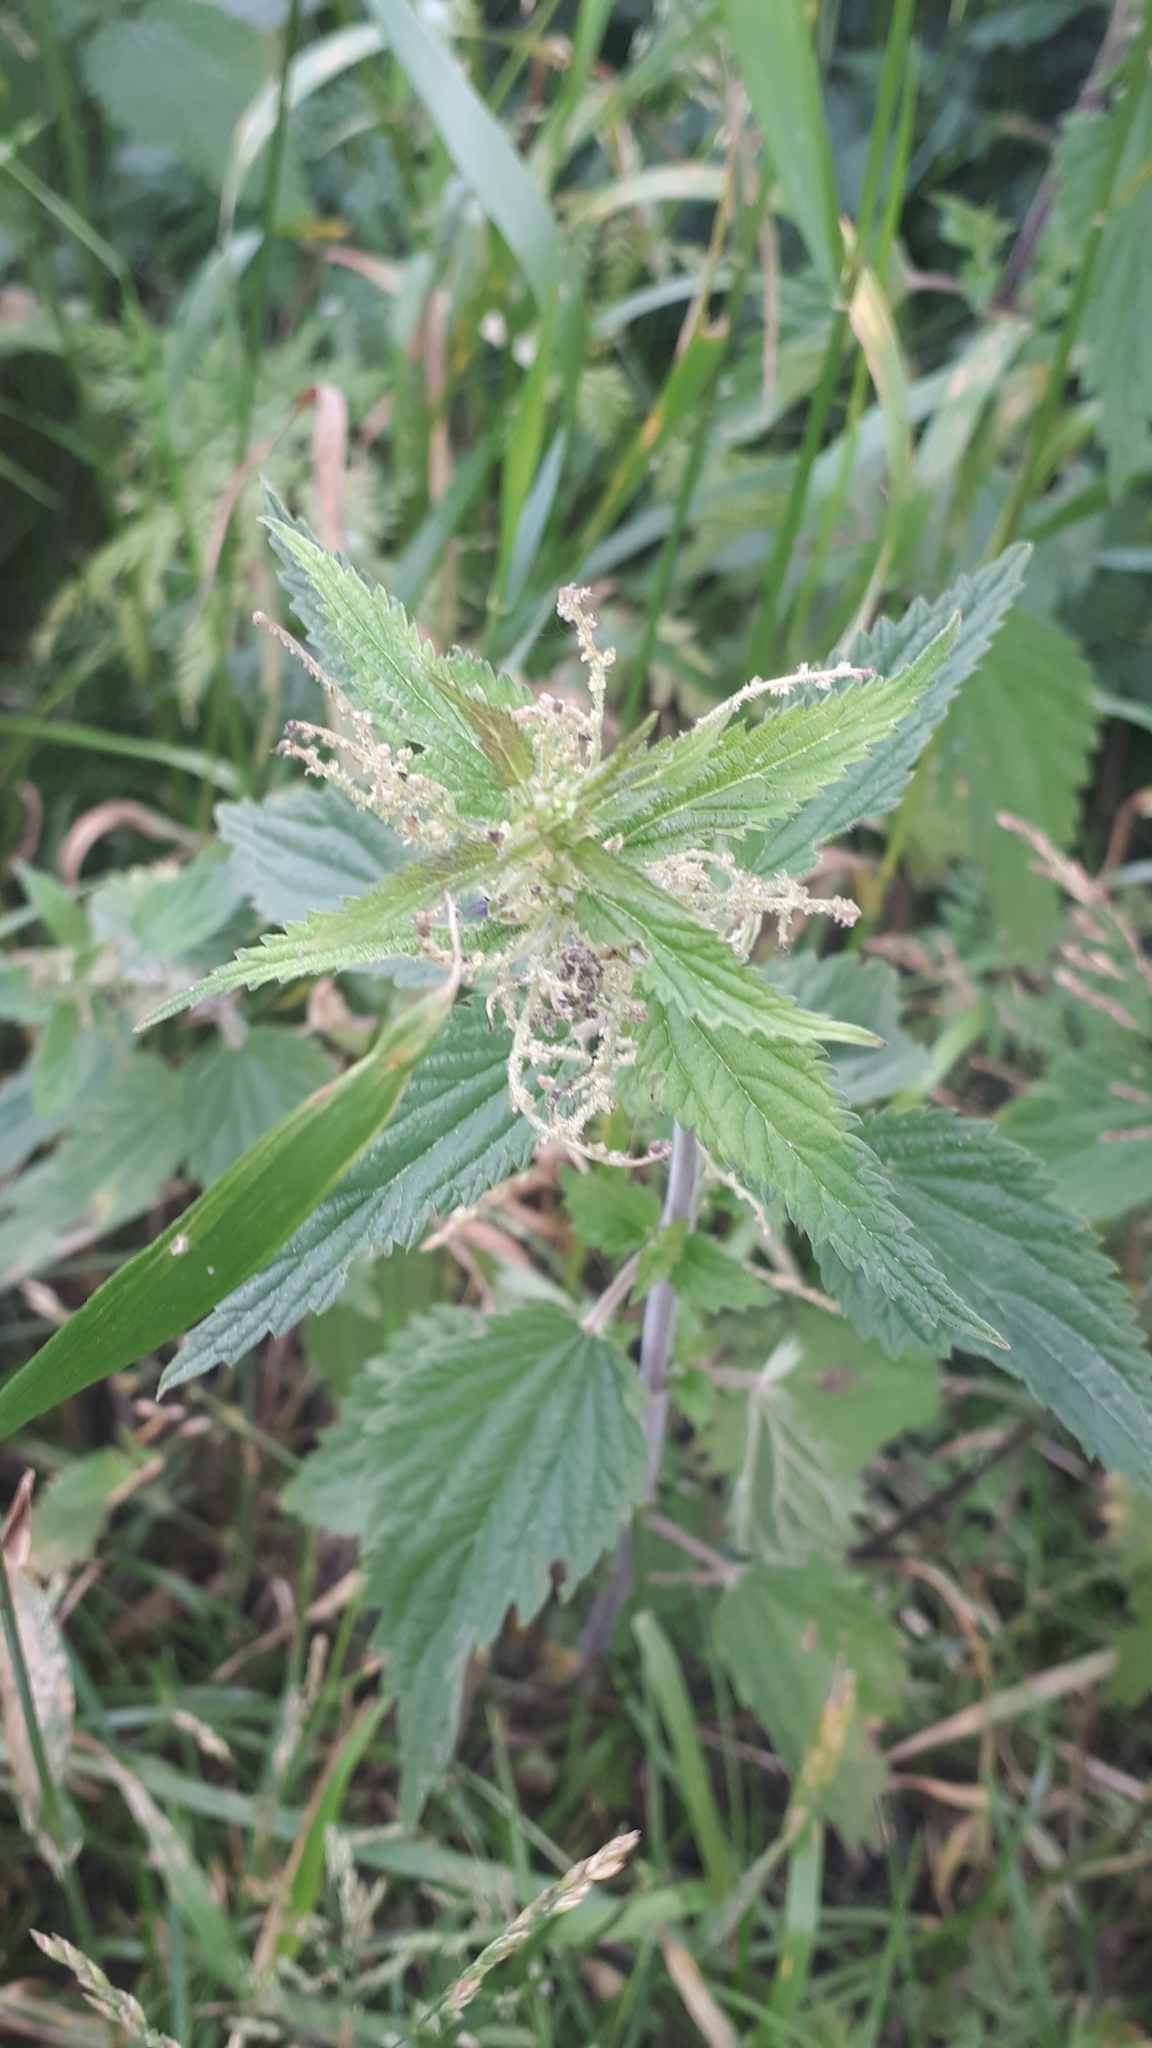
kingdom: Plantae
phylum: Tracheophyta
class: Magnoliopsida
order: Rosales
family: Urticaceae
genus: Urtica
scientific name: Urtica dioica
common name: Common nettle
